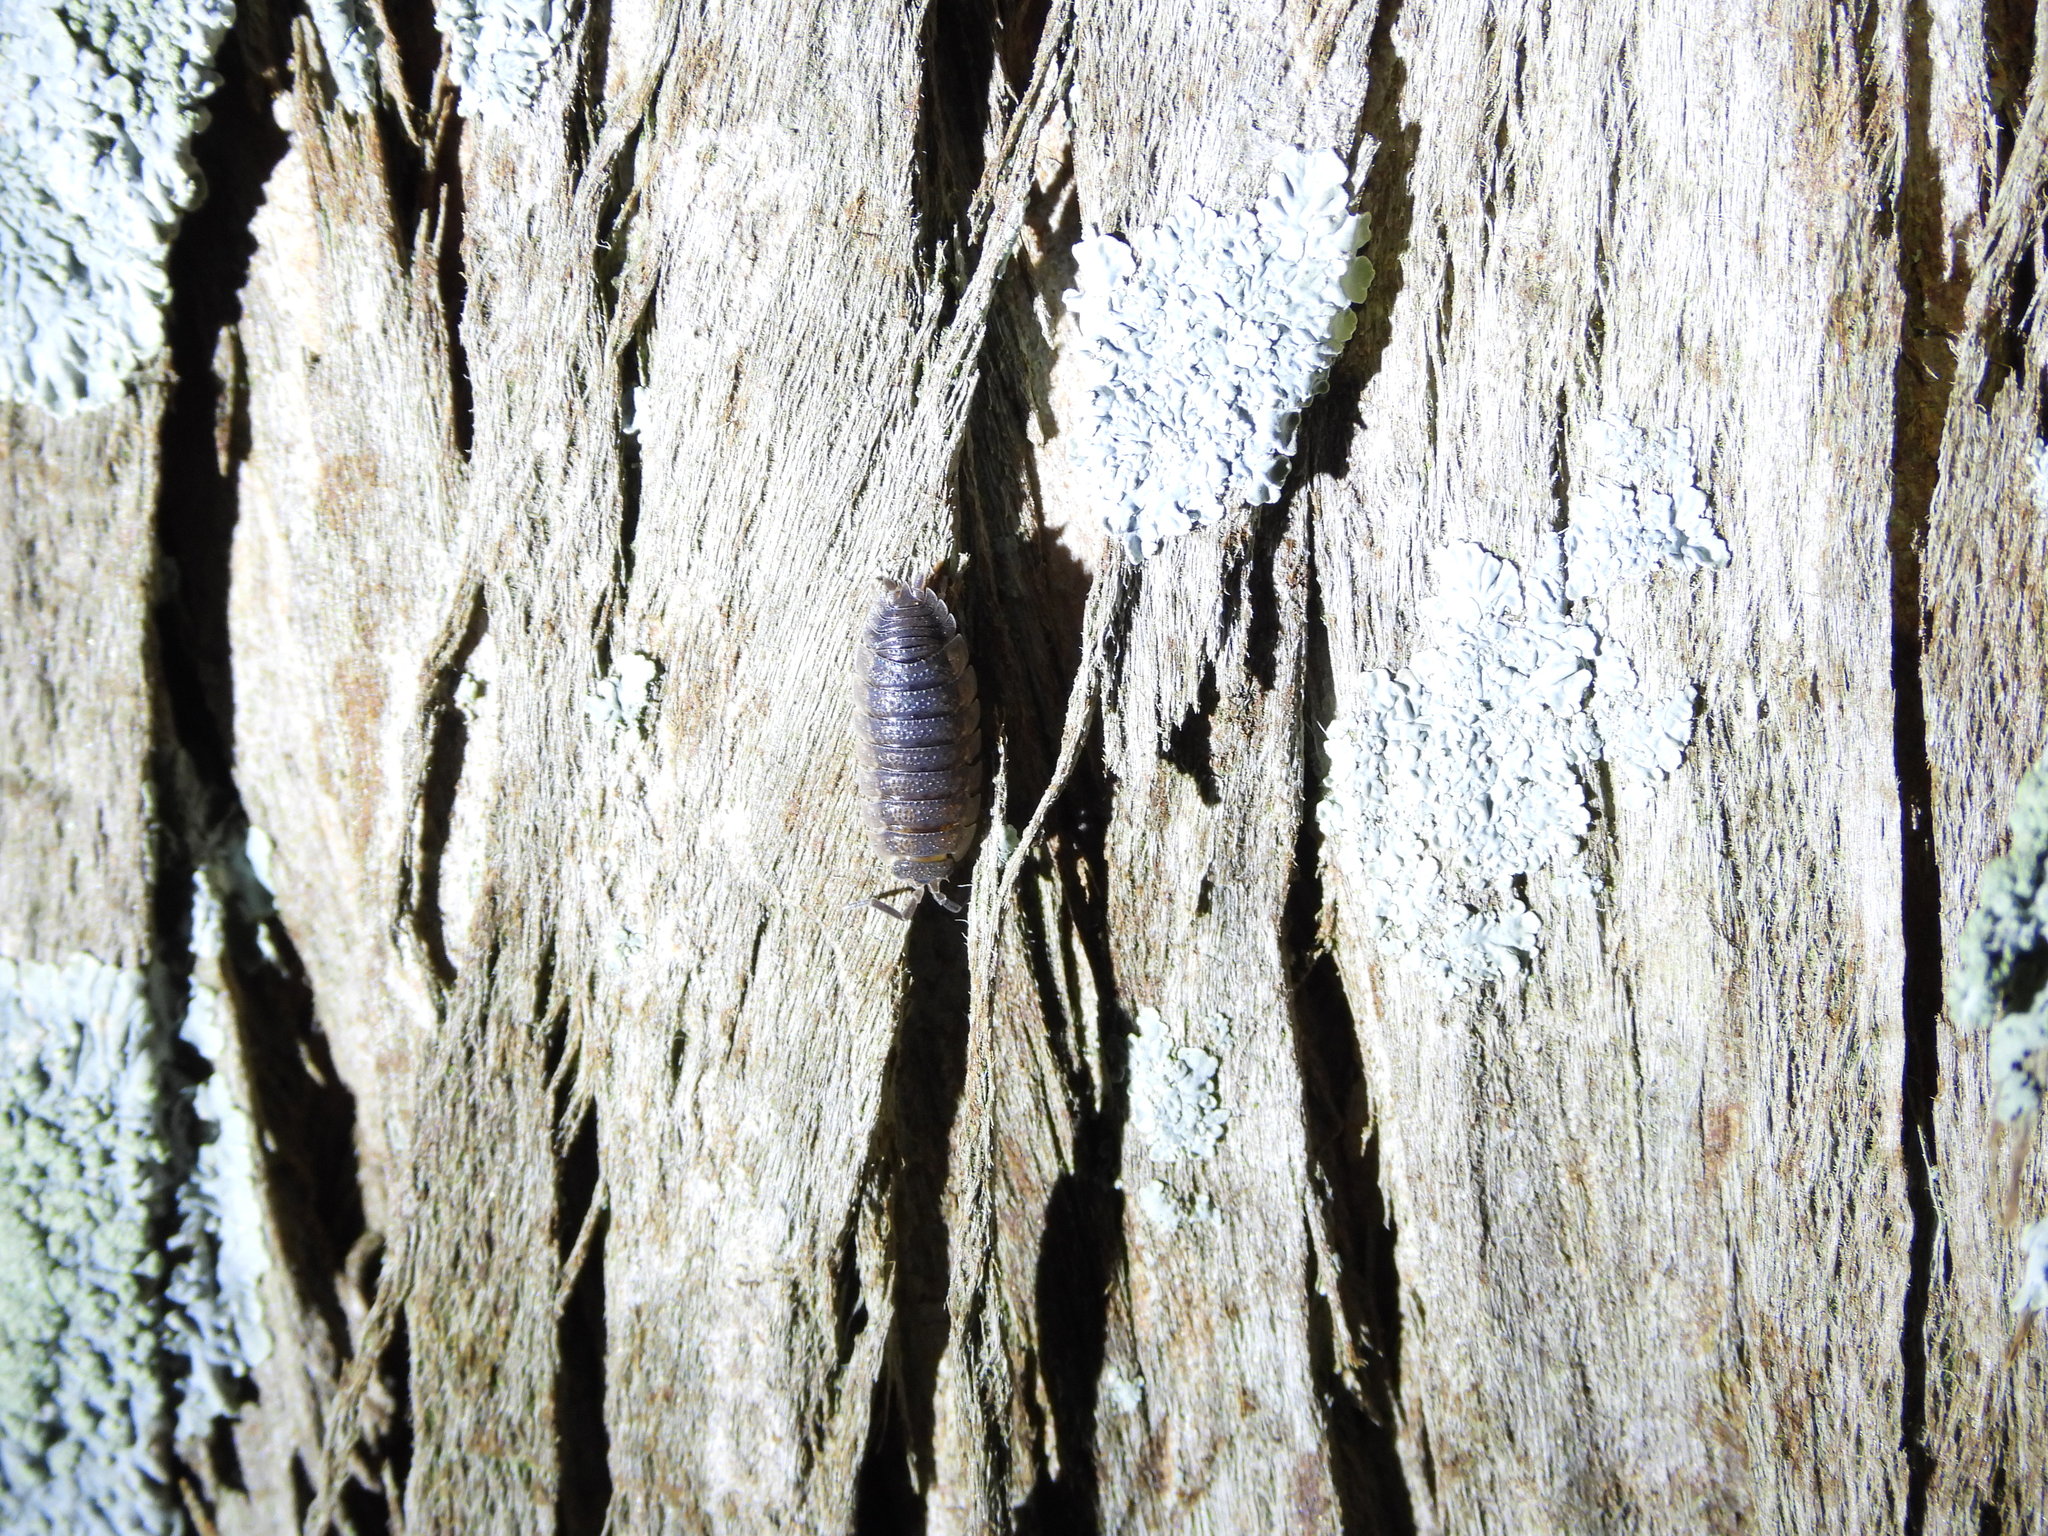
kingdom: Animalia
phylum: Arthropoda
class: Malacostraca
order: Isopoda
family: Porcellionidae
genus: Porcellio
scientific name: Porcellio scaber
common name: Common rough woodlouse
